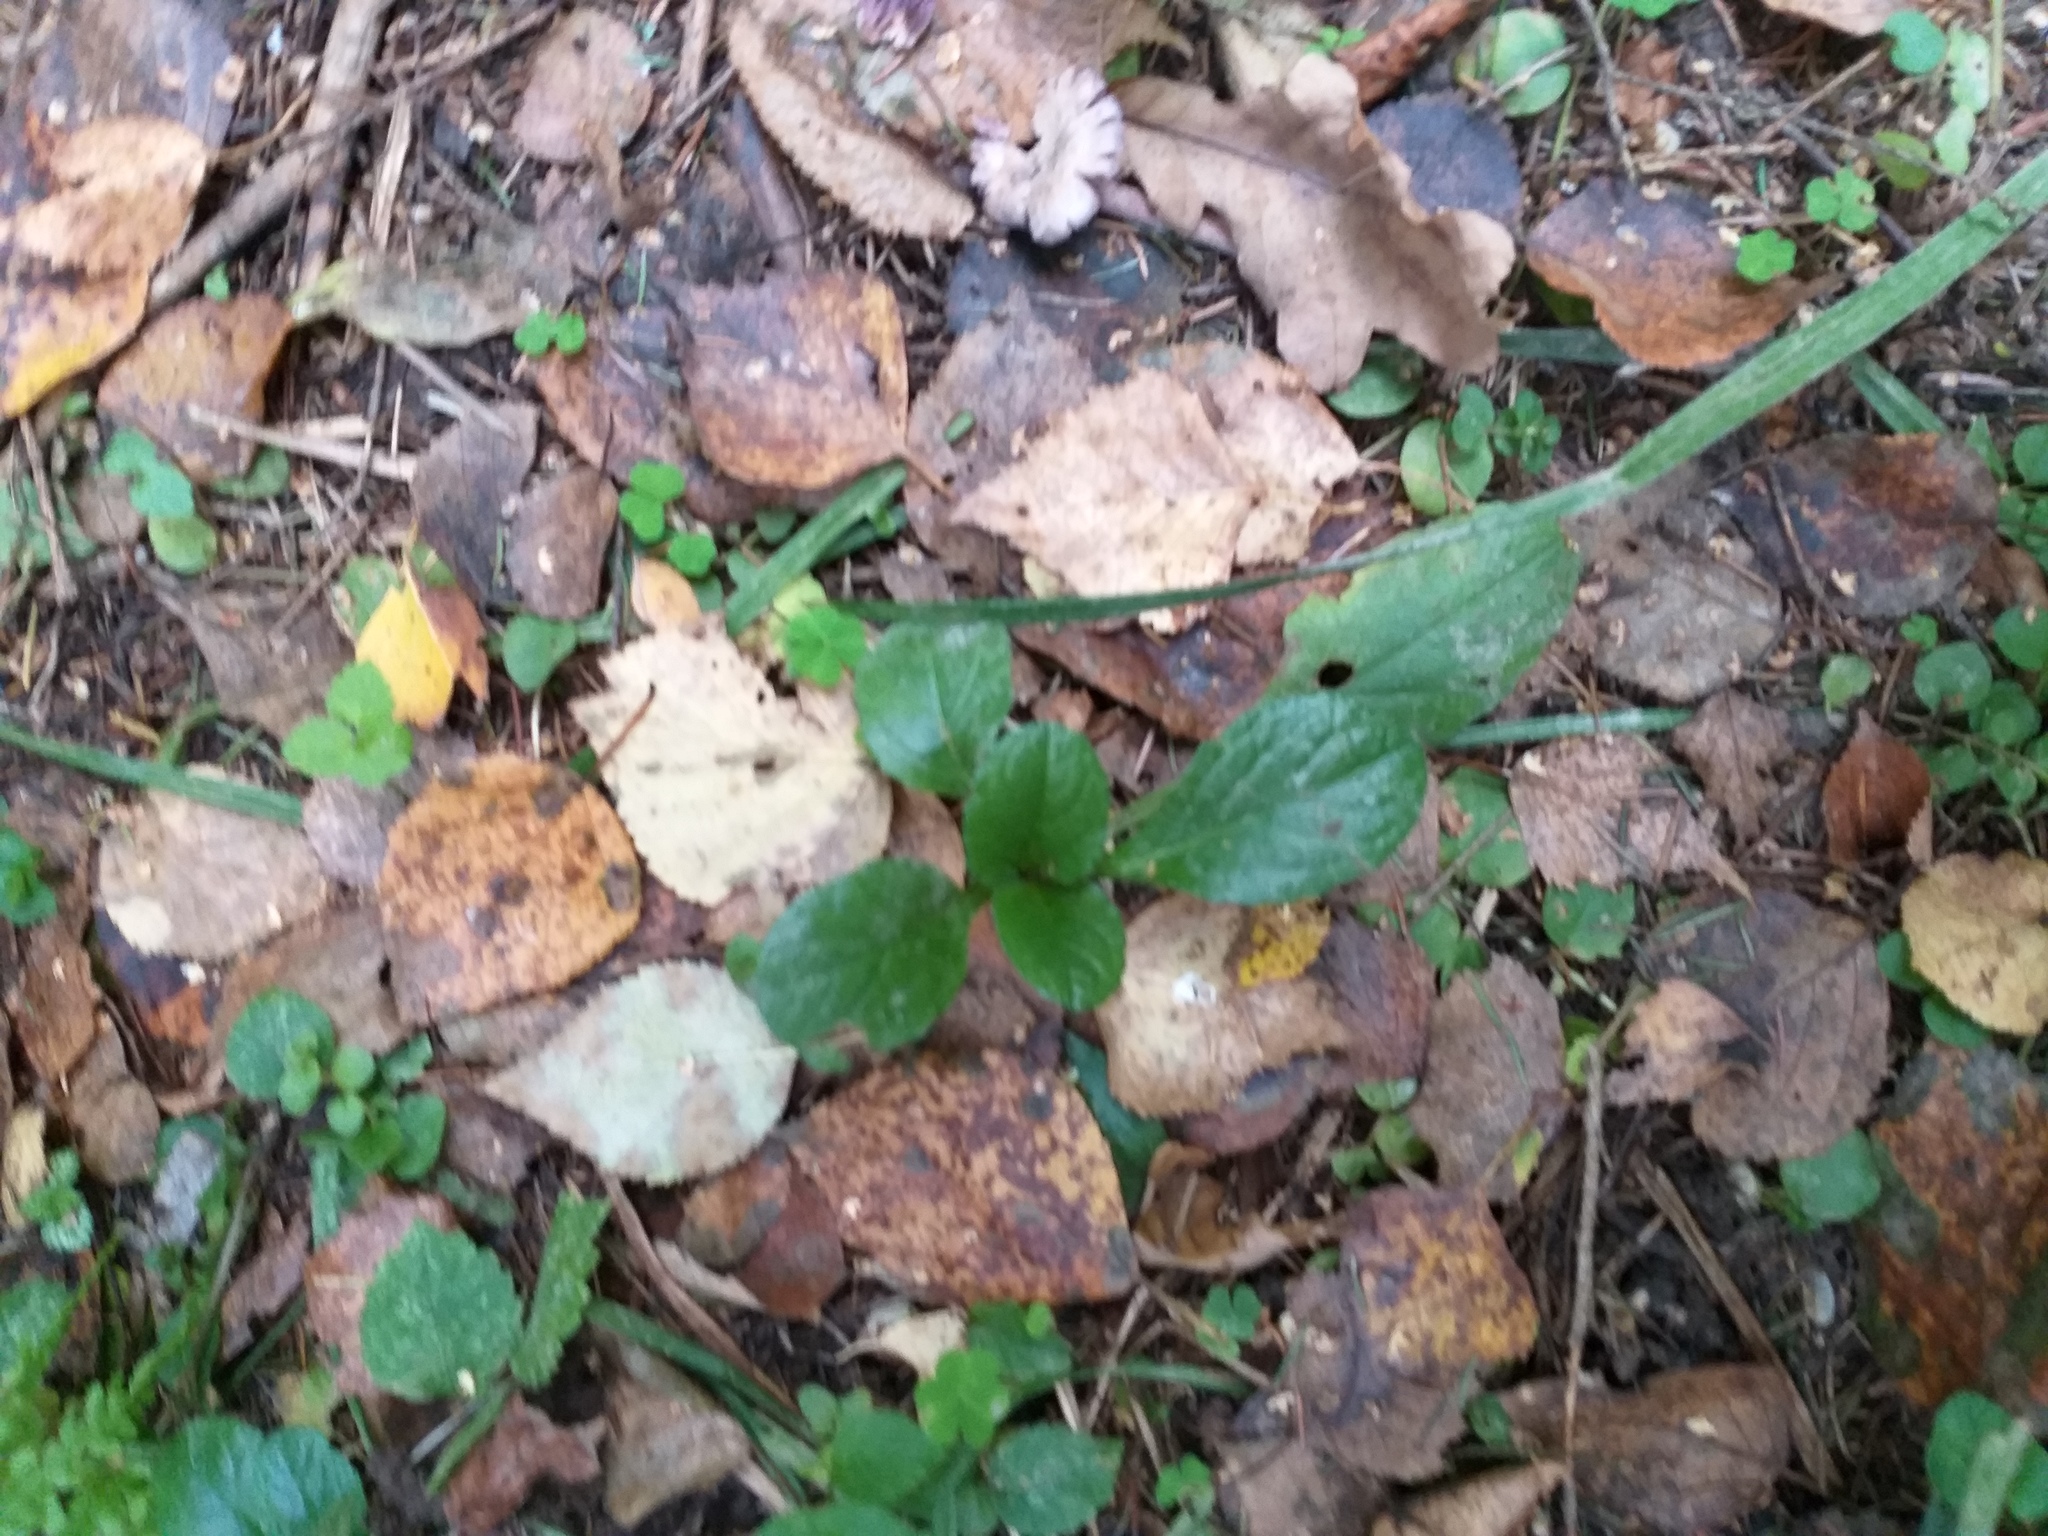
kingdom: Plantae
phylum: Tracheophyta
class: Magnoliopsida
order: Lamiales
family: Lamiaceae
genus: Ajuga
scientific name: Ajuga reptans
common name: Bugle
